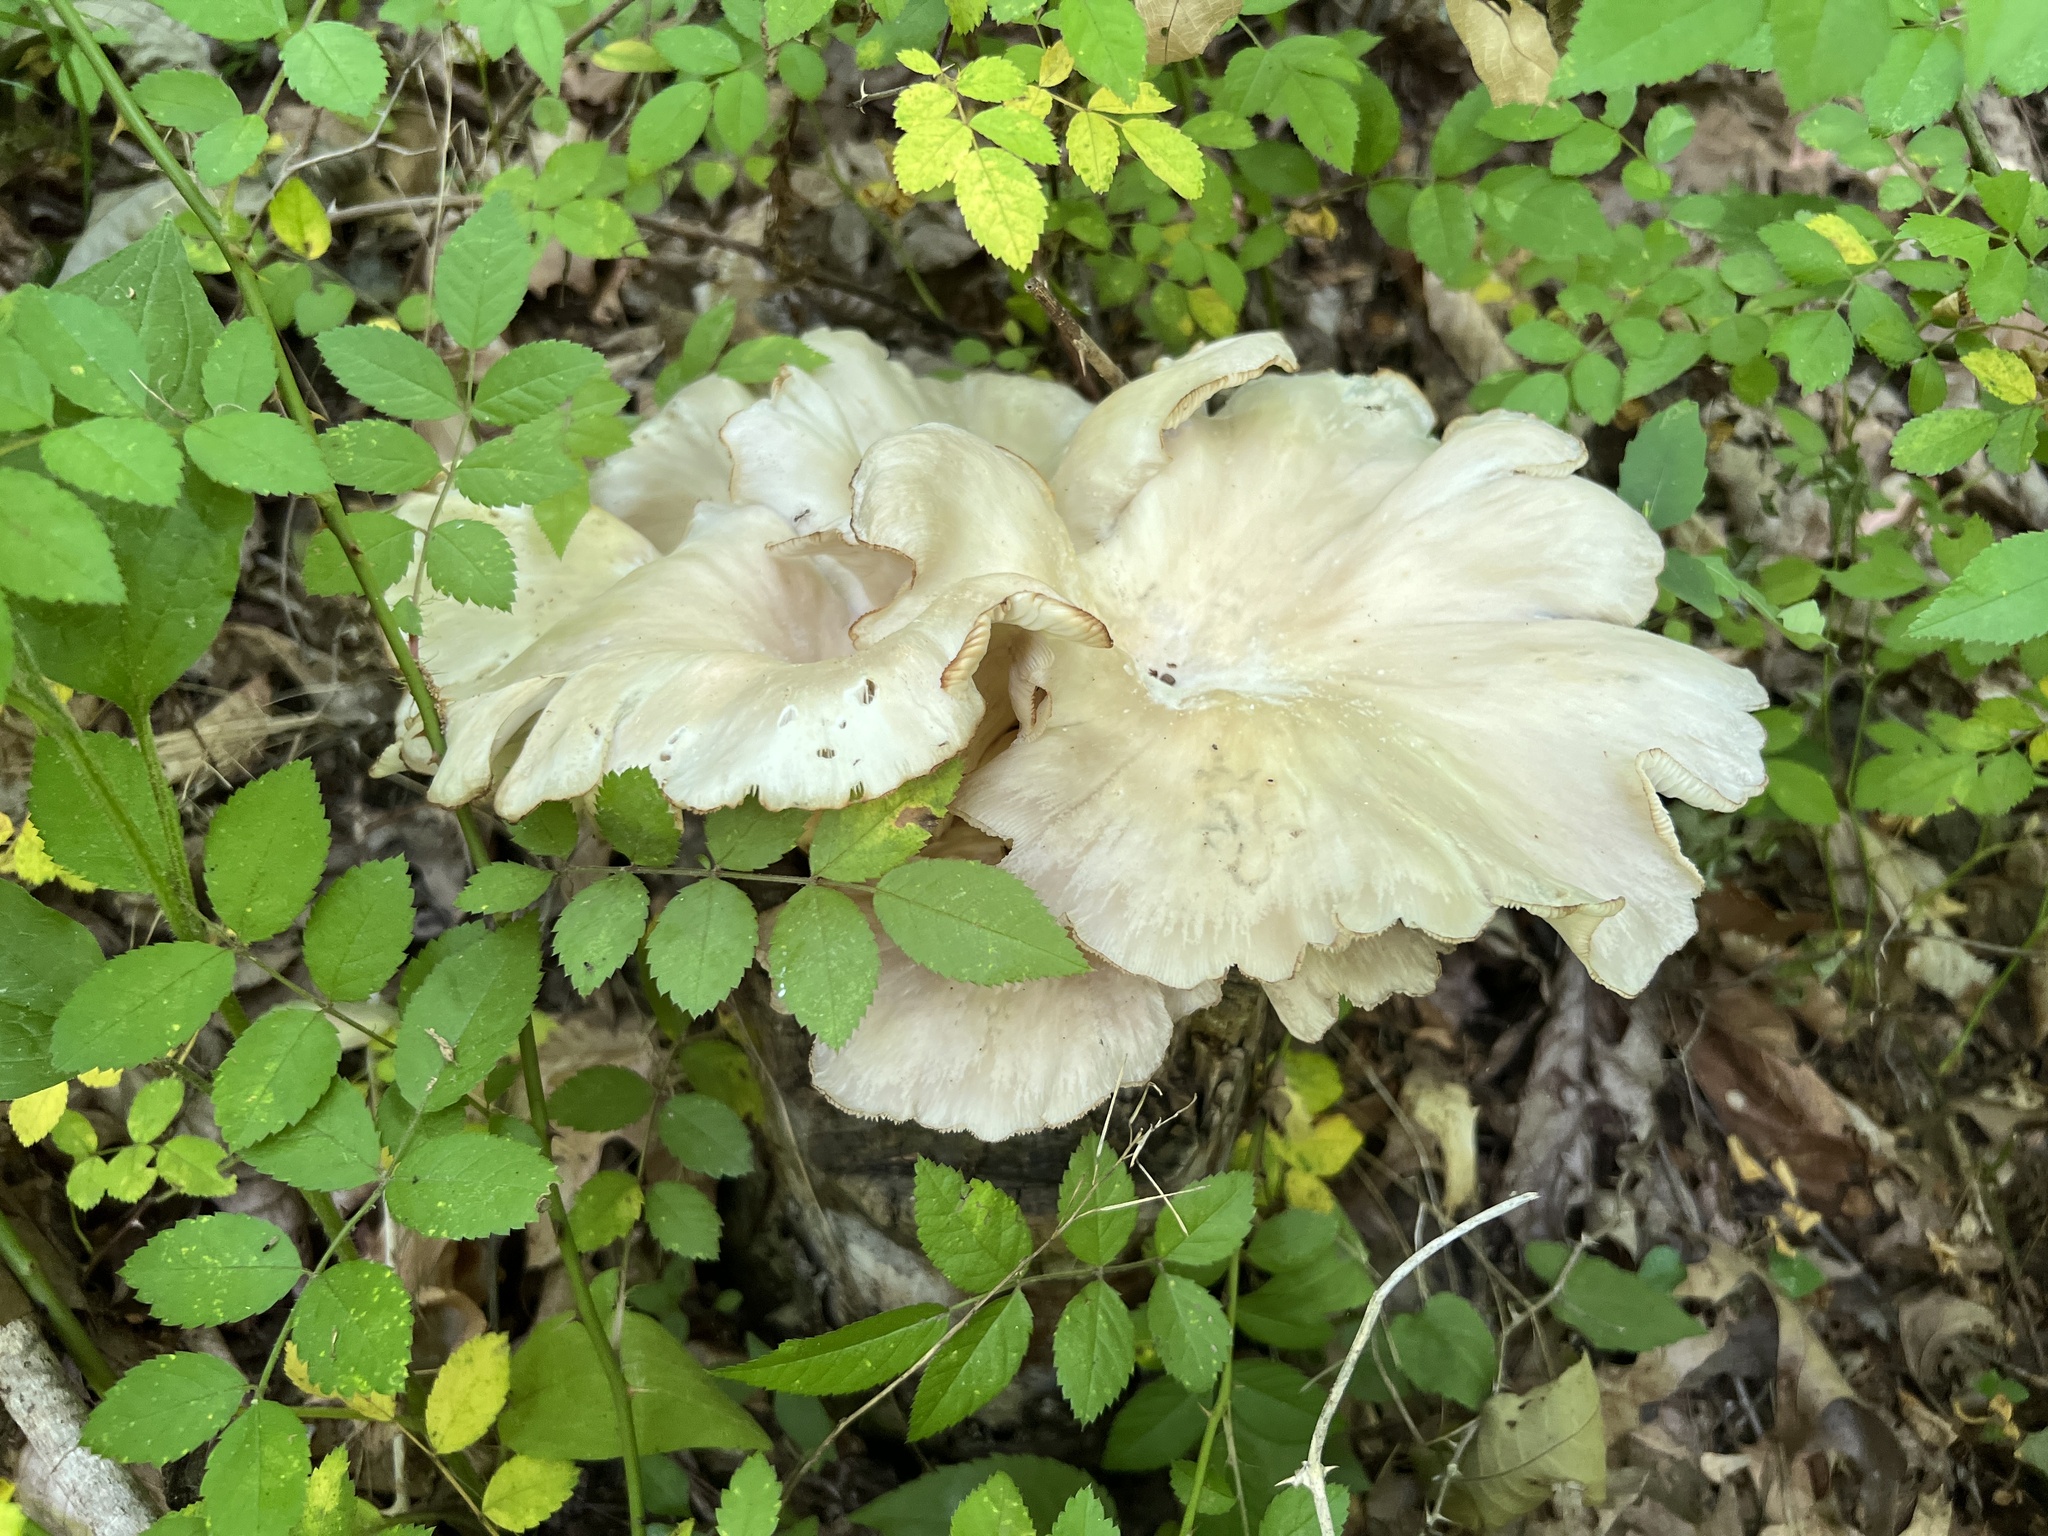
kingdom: Fungi
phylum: Basidiomycota
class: Agaricomycetes
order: Agaricales
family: Pleurotaceae
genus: Pleurotus
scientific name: Pleurotus pulmonarius
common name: Pale oyster
